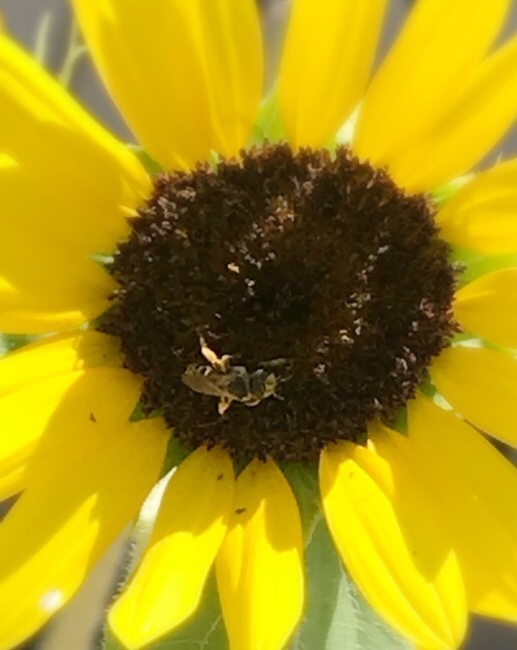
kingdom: Animalia
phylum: Arthropoda
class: Insecta
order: Hymenoptera
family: Halictidae
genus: Halictus
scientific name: Halictus ligatus
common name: Ligated furrow bee
